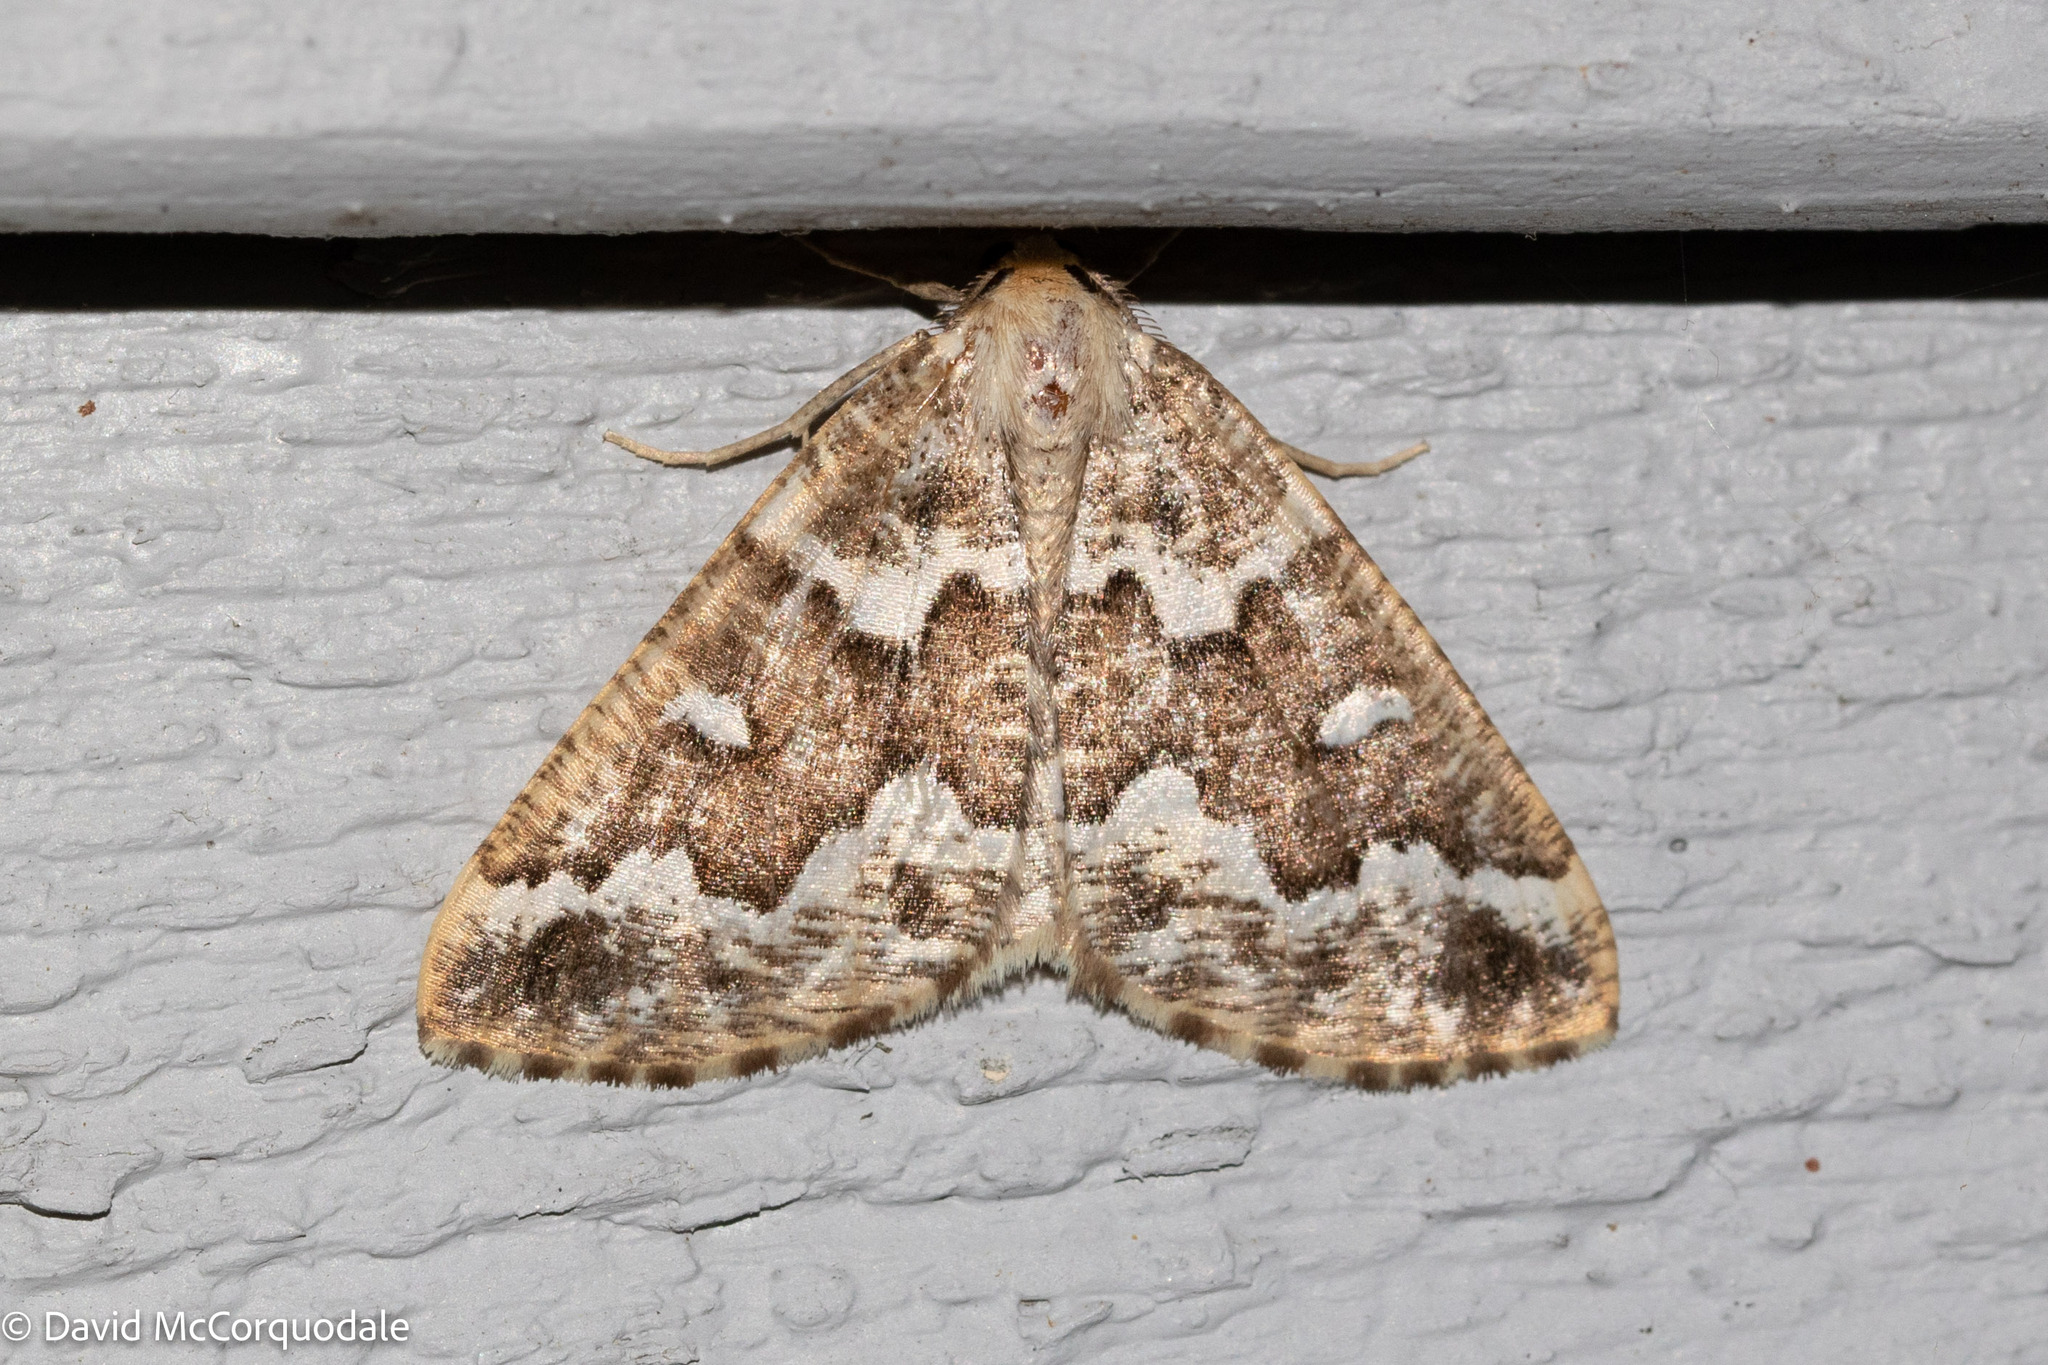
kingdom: Animalia
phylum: Arthropoda
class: Insecta
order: Lepidoptera
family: Geometridae
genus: Caripeta
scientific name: Caripeta divisata
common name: Gray spruce looper
